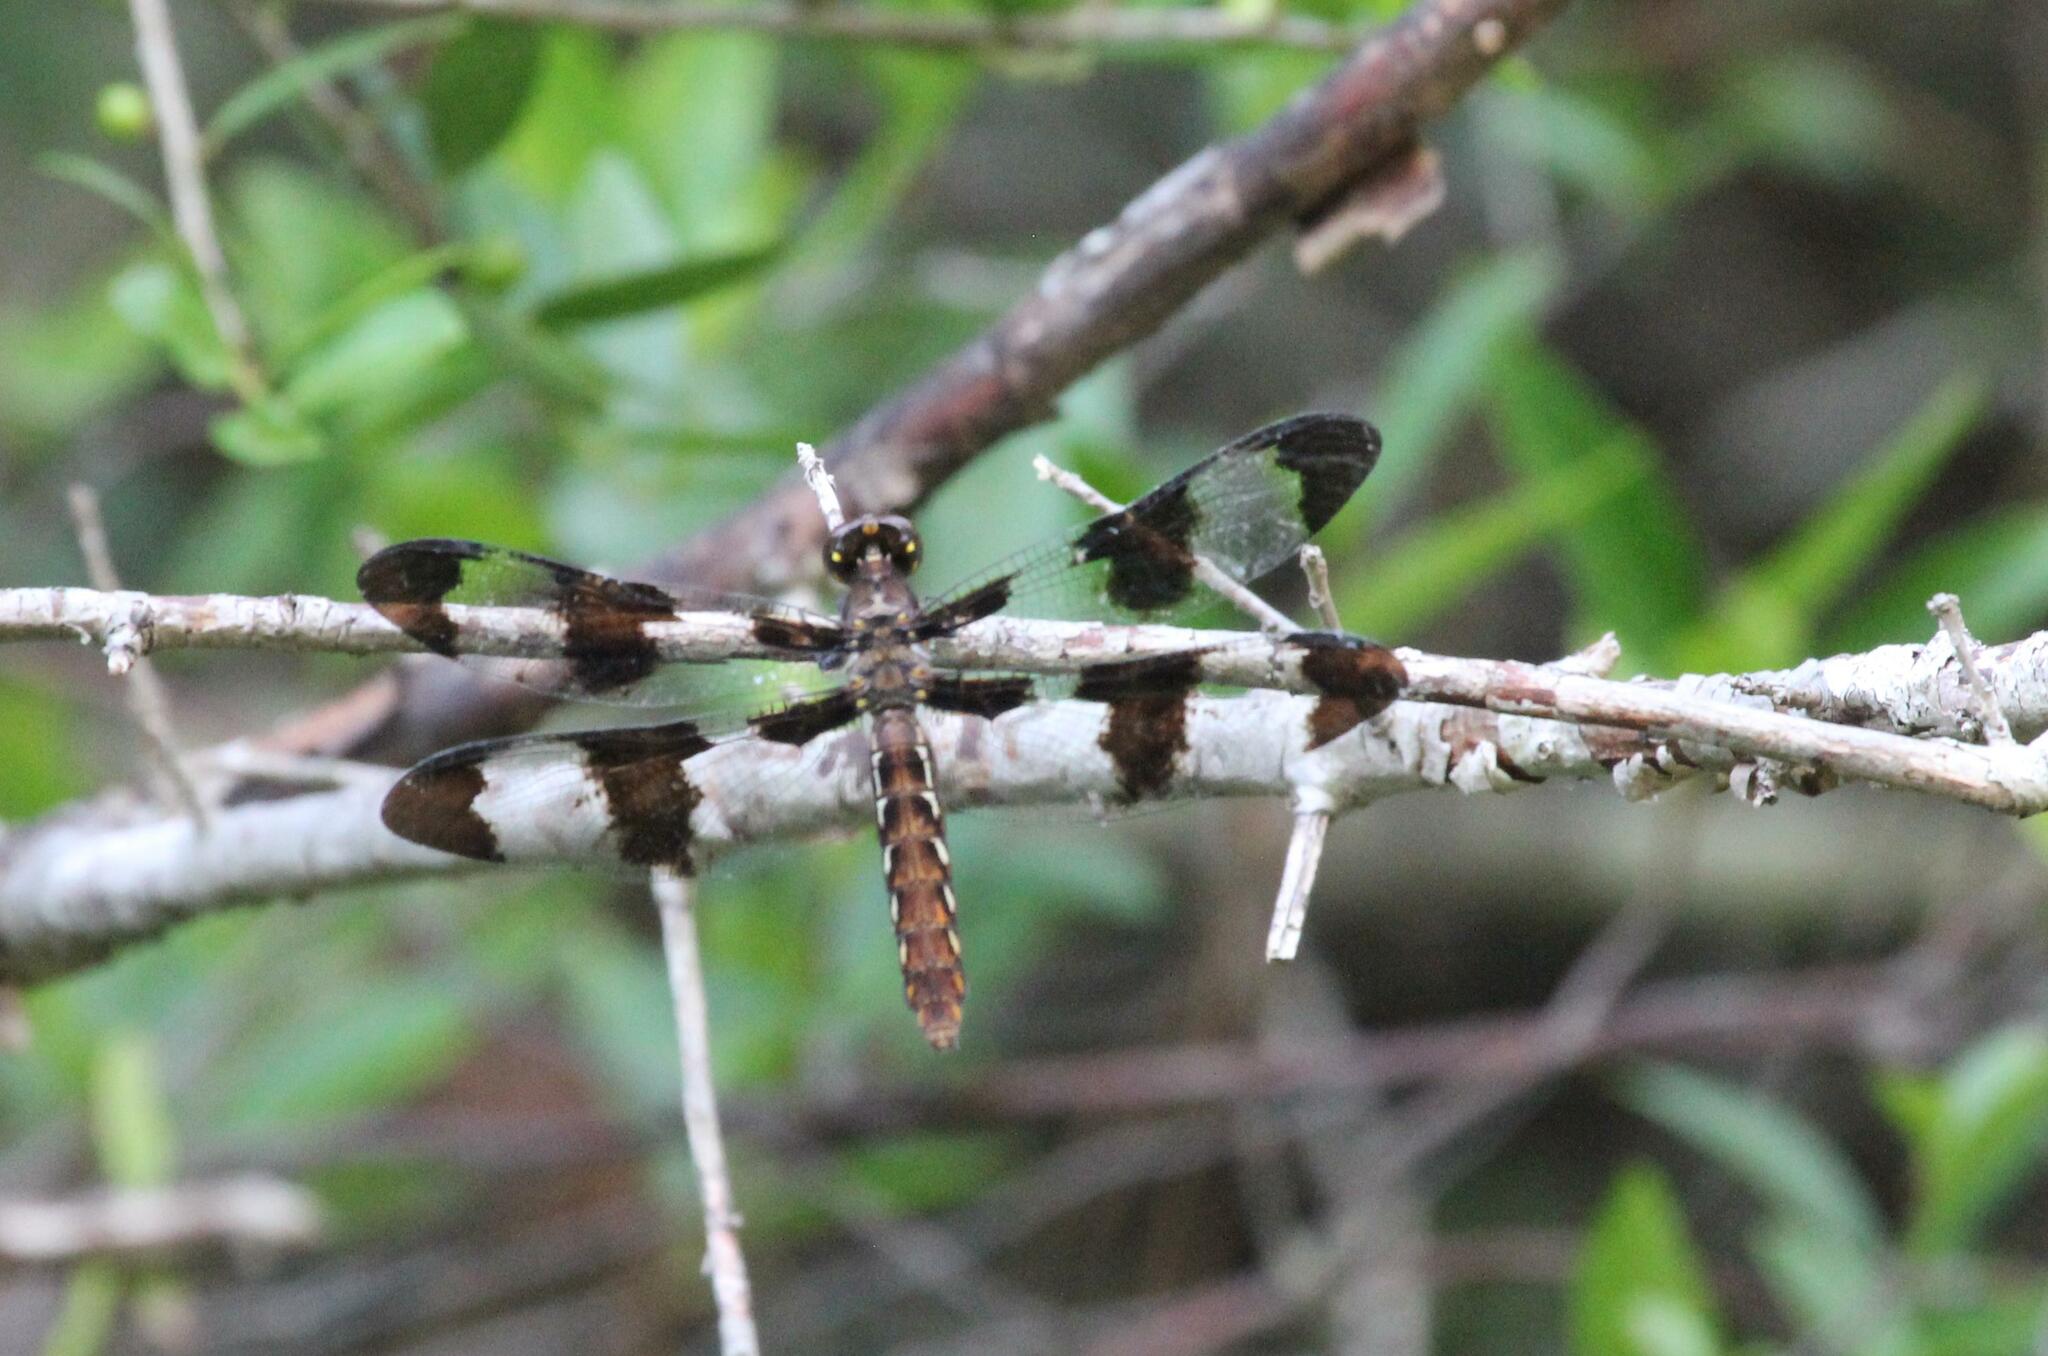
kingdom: Animalia
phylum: Arthropoda
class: Insecta
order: Odonata
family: Libellulidae
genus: Plathemis
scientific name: Plathemis lydia
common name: Common whitetail
